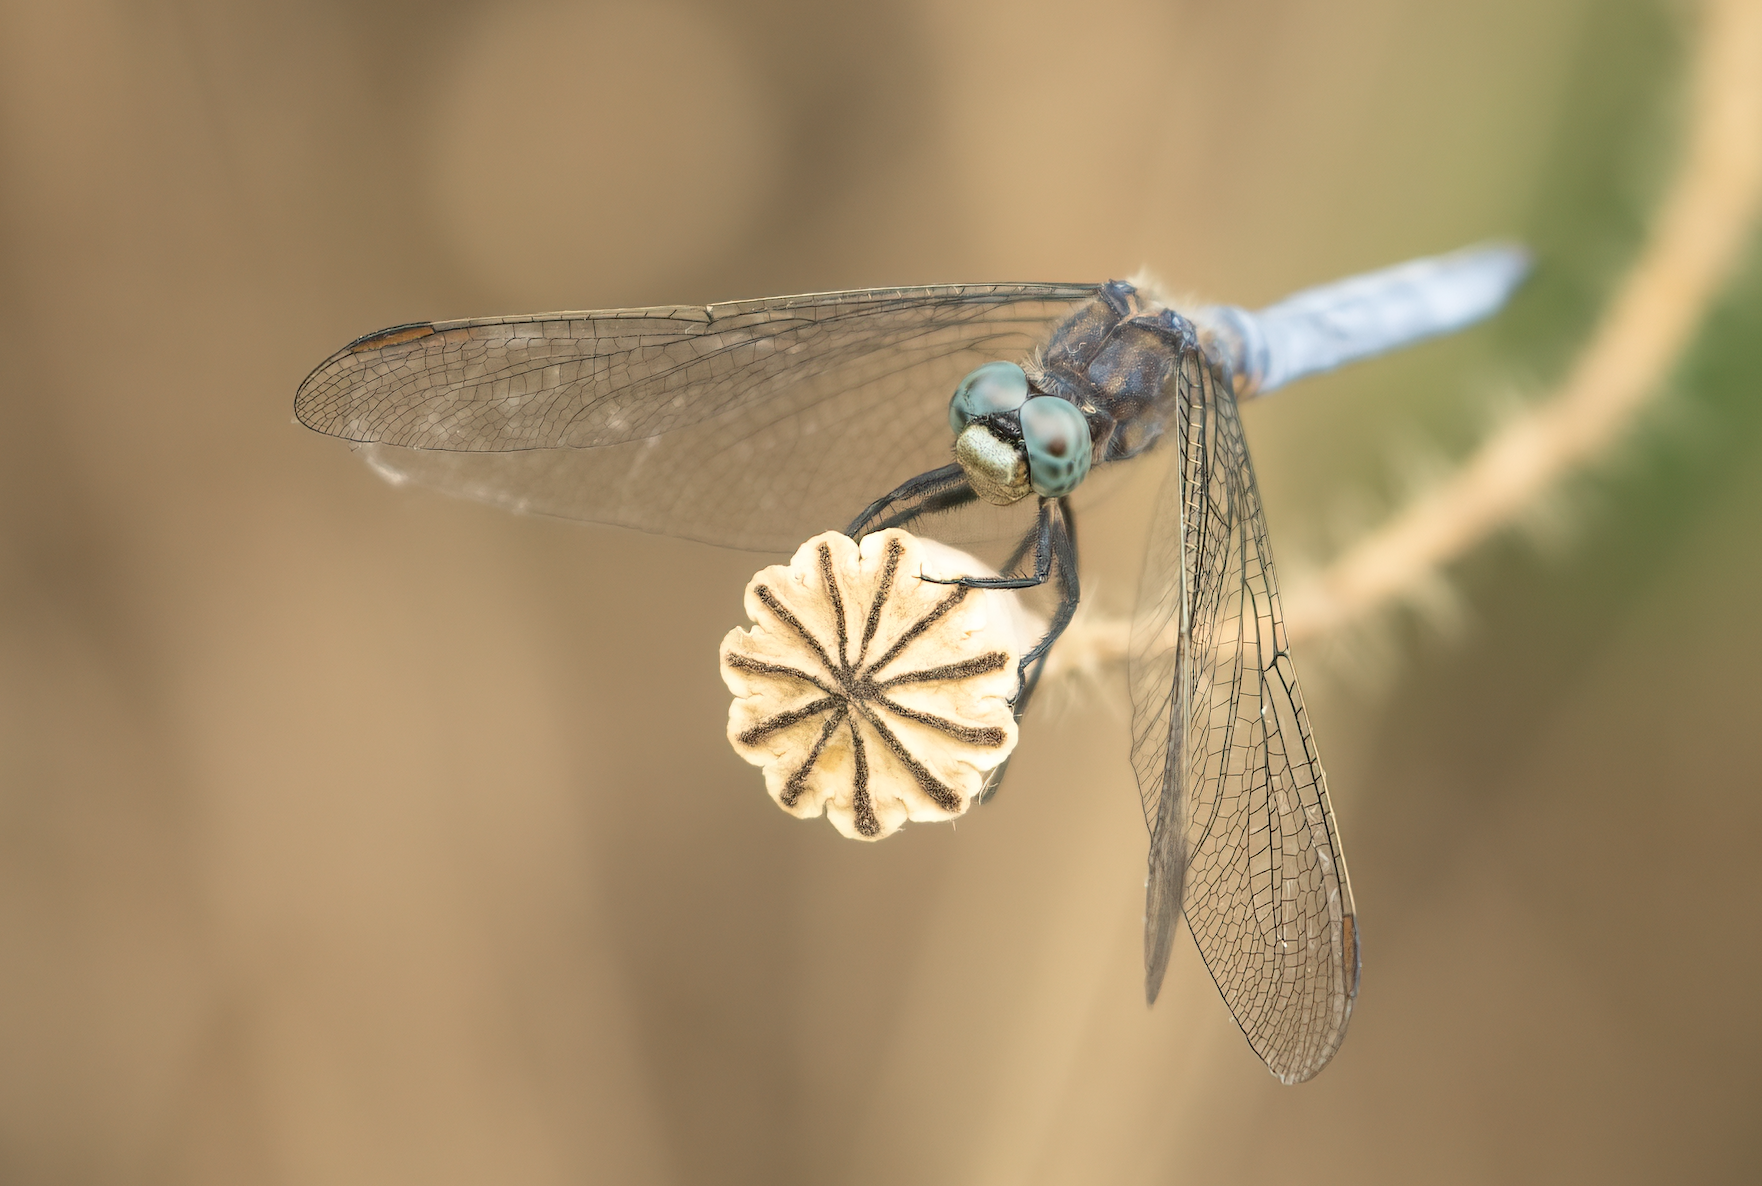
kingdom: Animalia
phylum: Arthropoda
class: Insecta
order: Odonata
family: Libellulidae
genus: Orthetrum
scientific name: Orthetrum coerulescens
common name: Keeled skimmer
